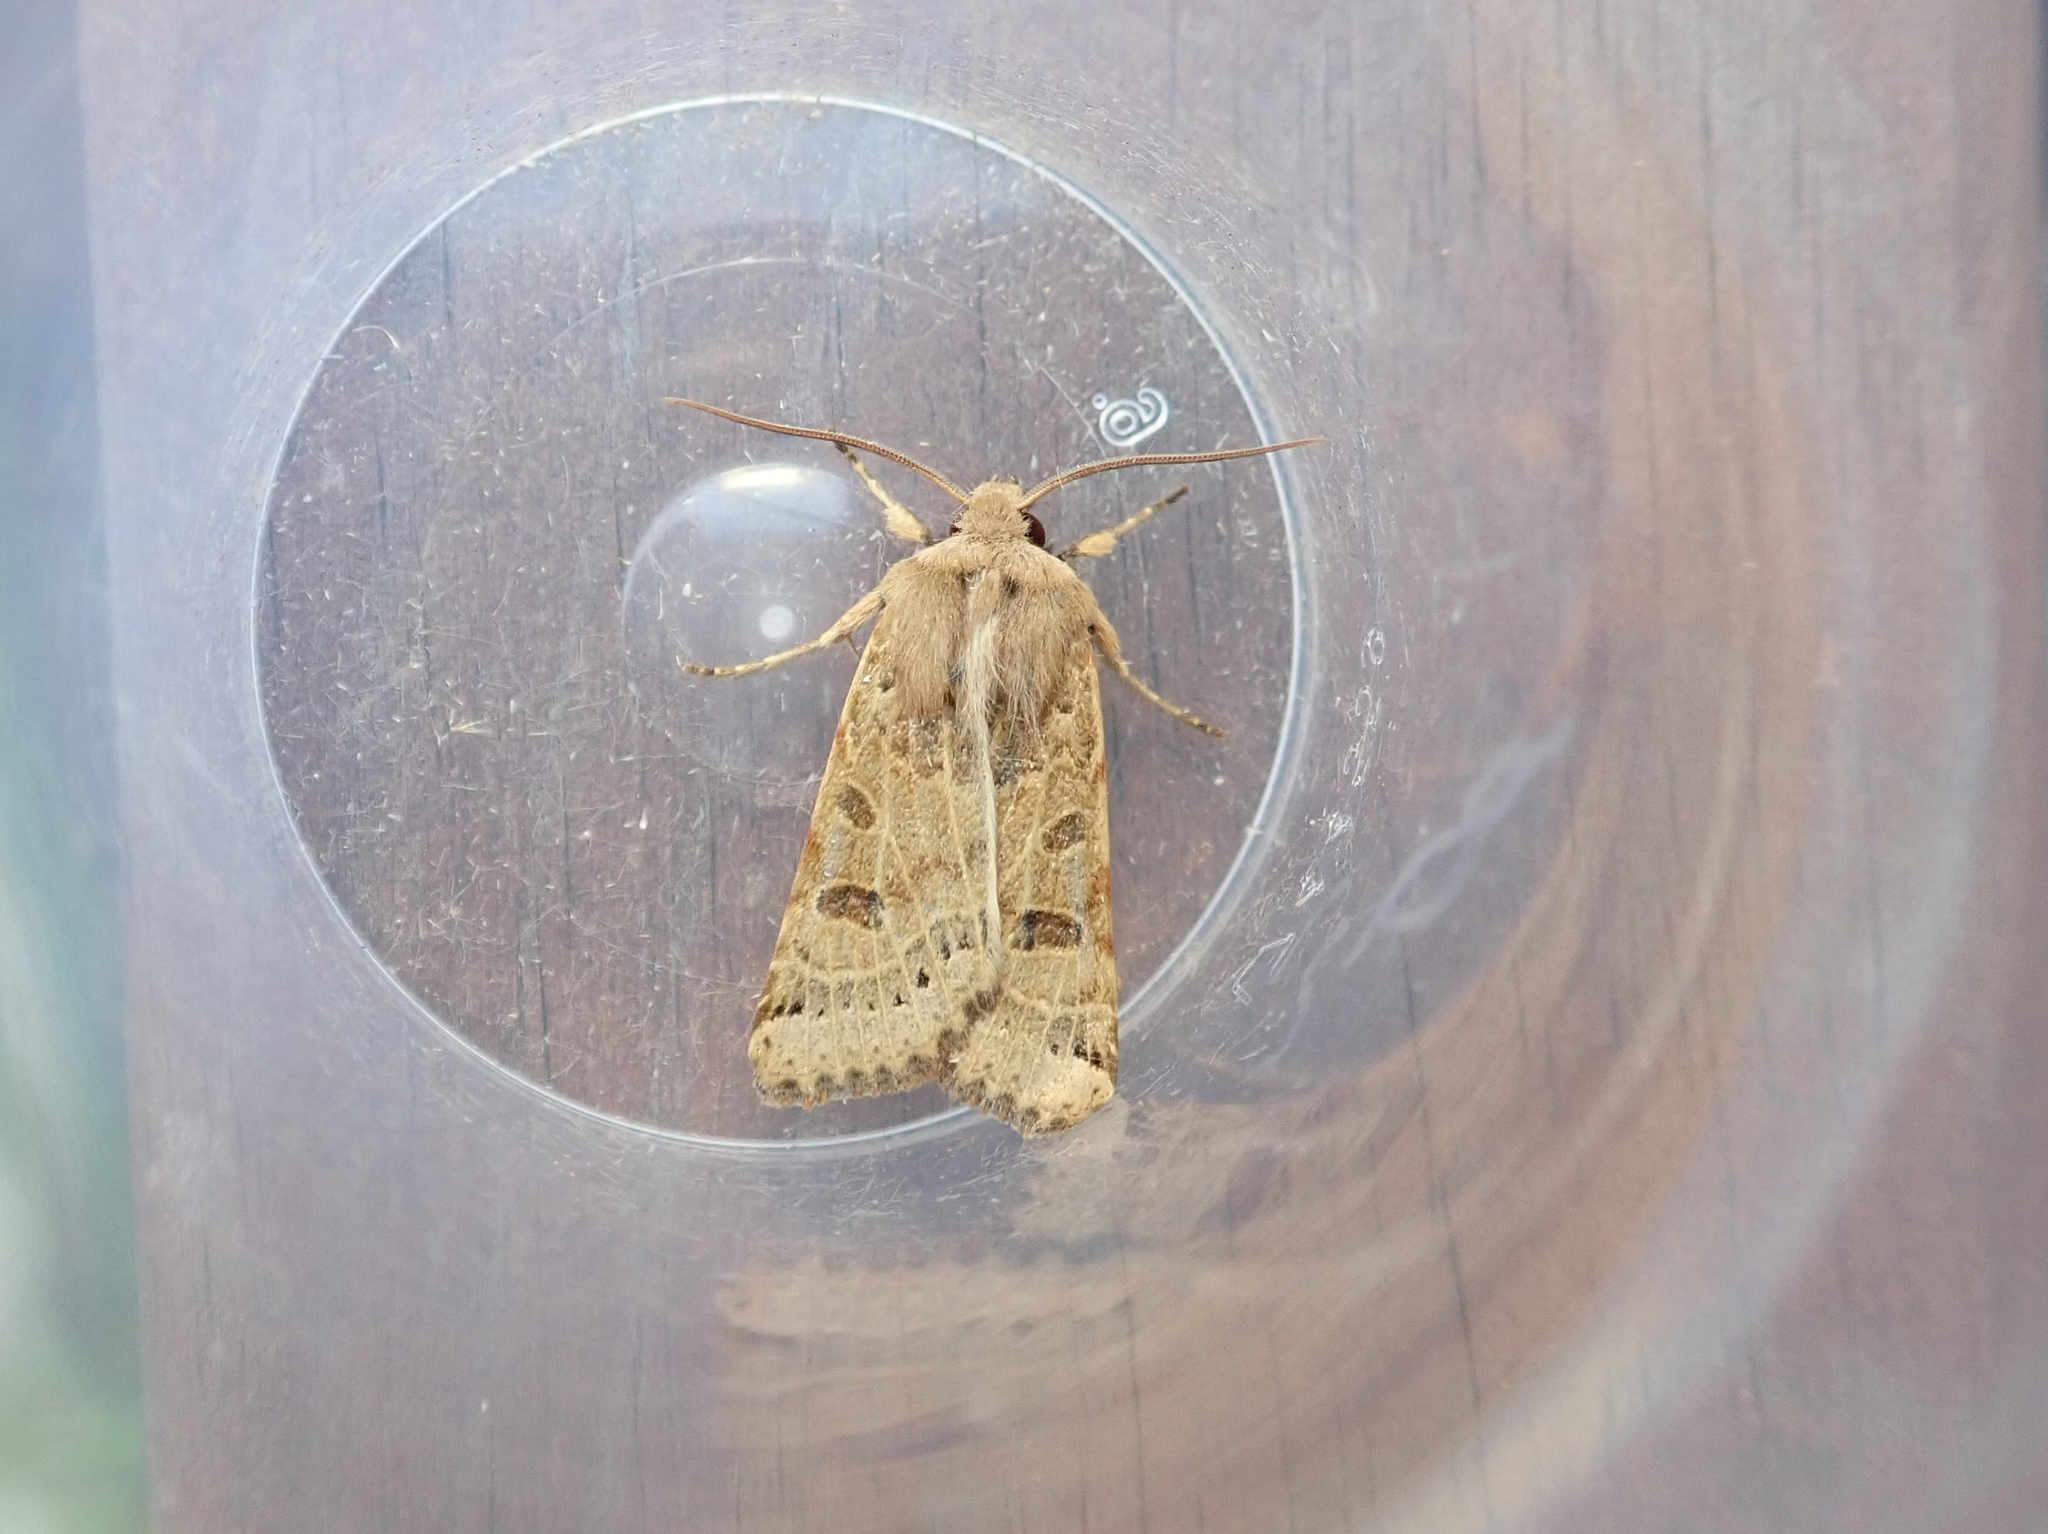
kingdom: Animalia
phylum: Arthropoda
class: Insecta
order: Lepidoptera
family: Noctuidae
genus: Agrochola
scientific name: Agrochola lunosa
